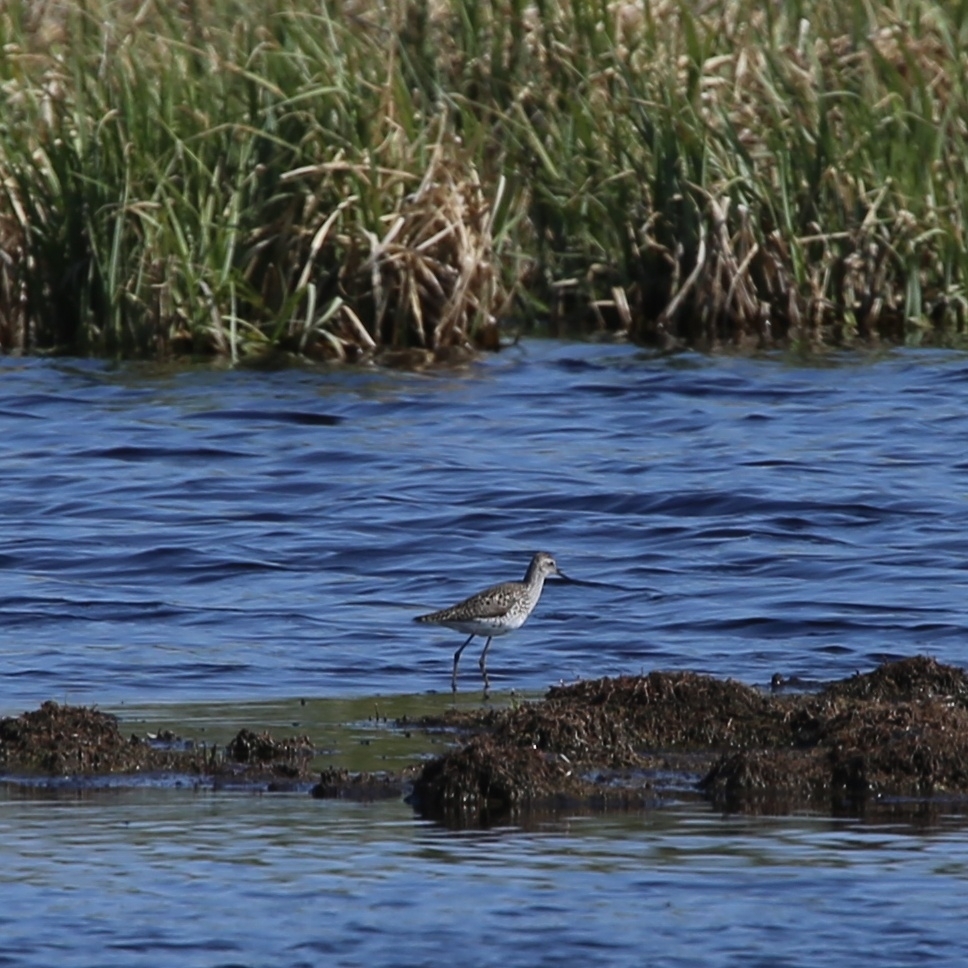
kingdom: Animalia
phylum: Chordata
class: Aves
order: Charadriiformes
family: Scolopacidae
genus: Tringa
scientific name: Tringa stagnatilis
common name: Marsh sandpiper
